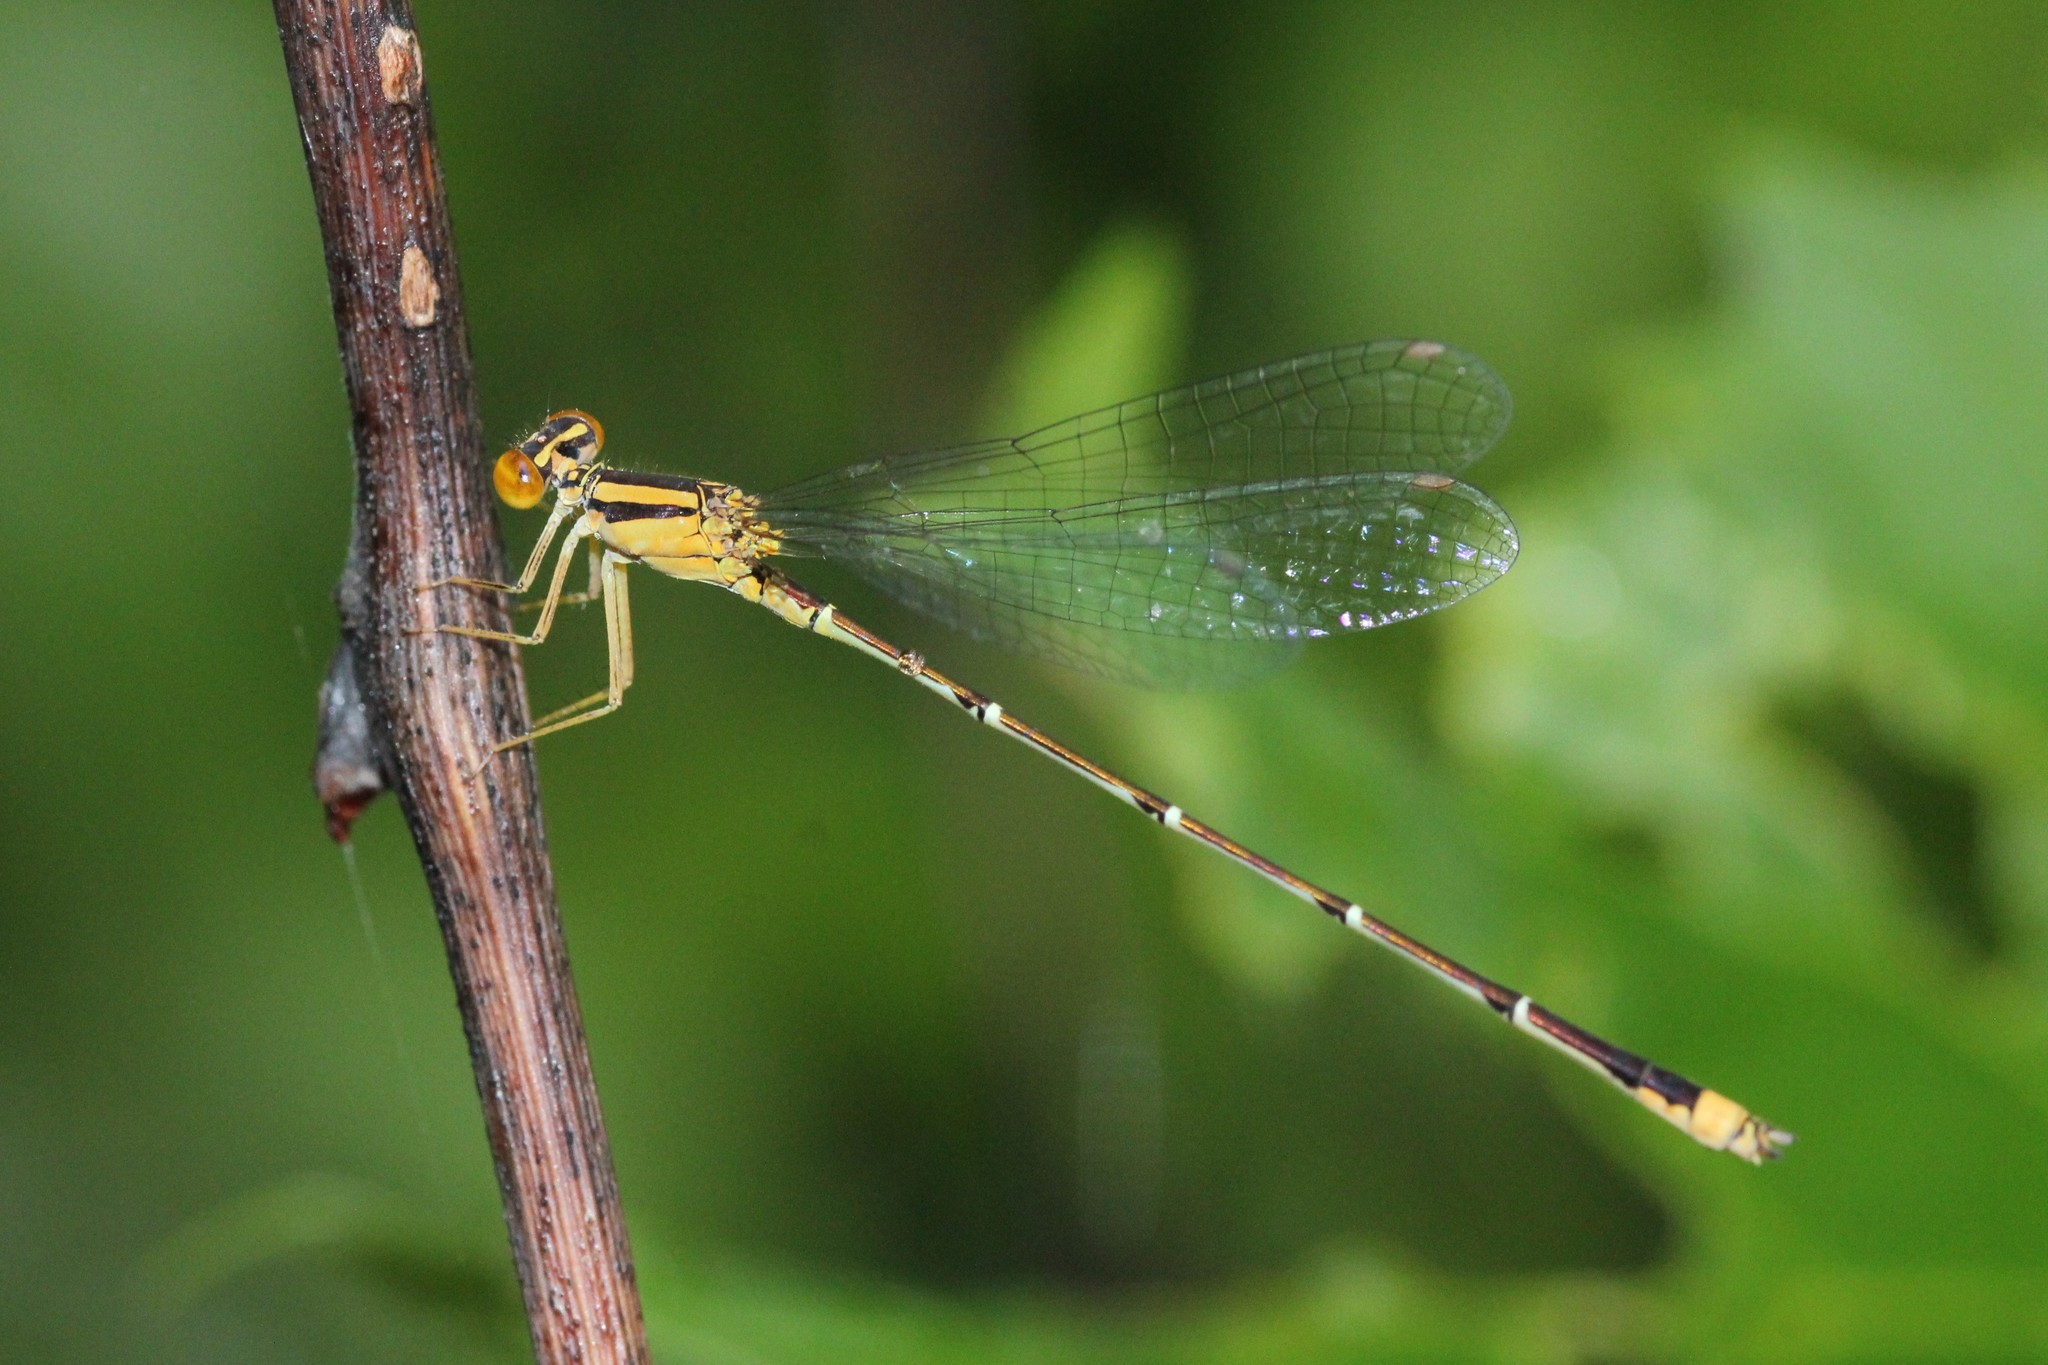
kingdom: Animalia
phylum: Arthropoda
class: Insecta
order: Odonata
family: Coenagrionidae
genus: Enallagma
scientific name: Enallagma signatum
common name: Orange bluet
